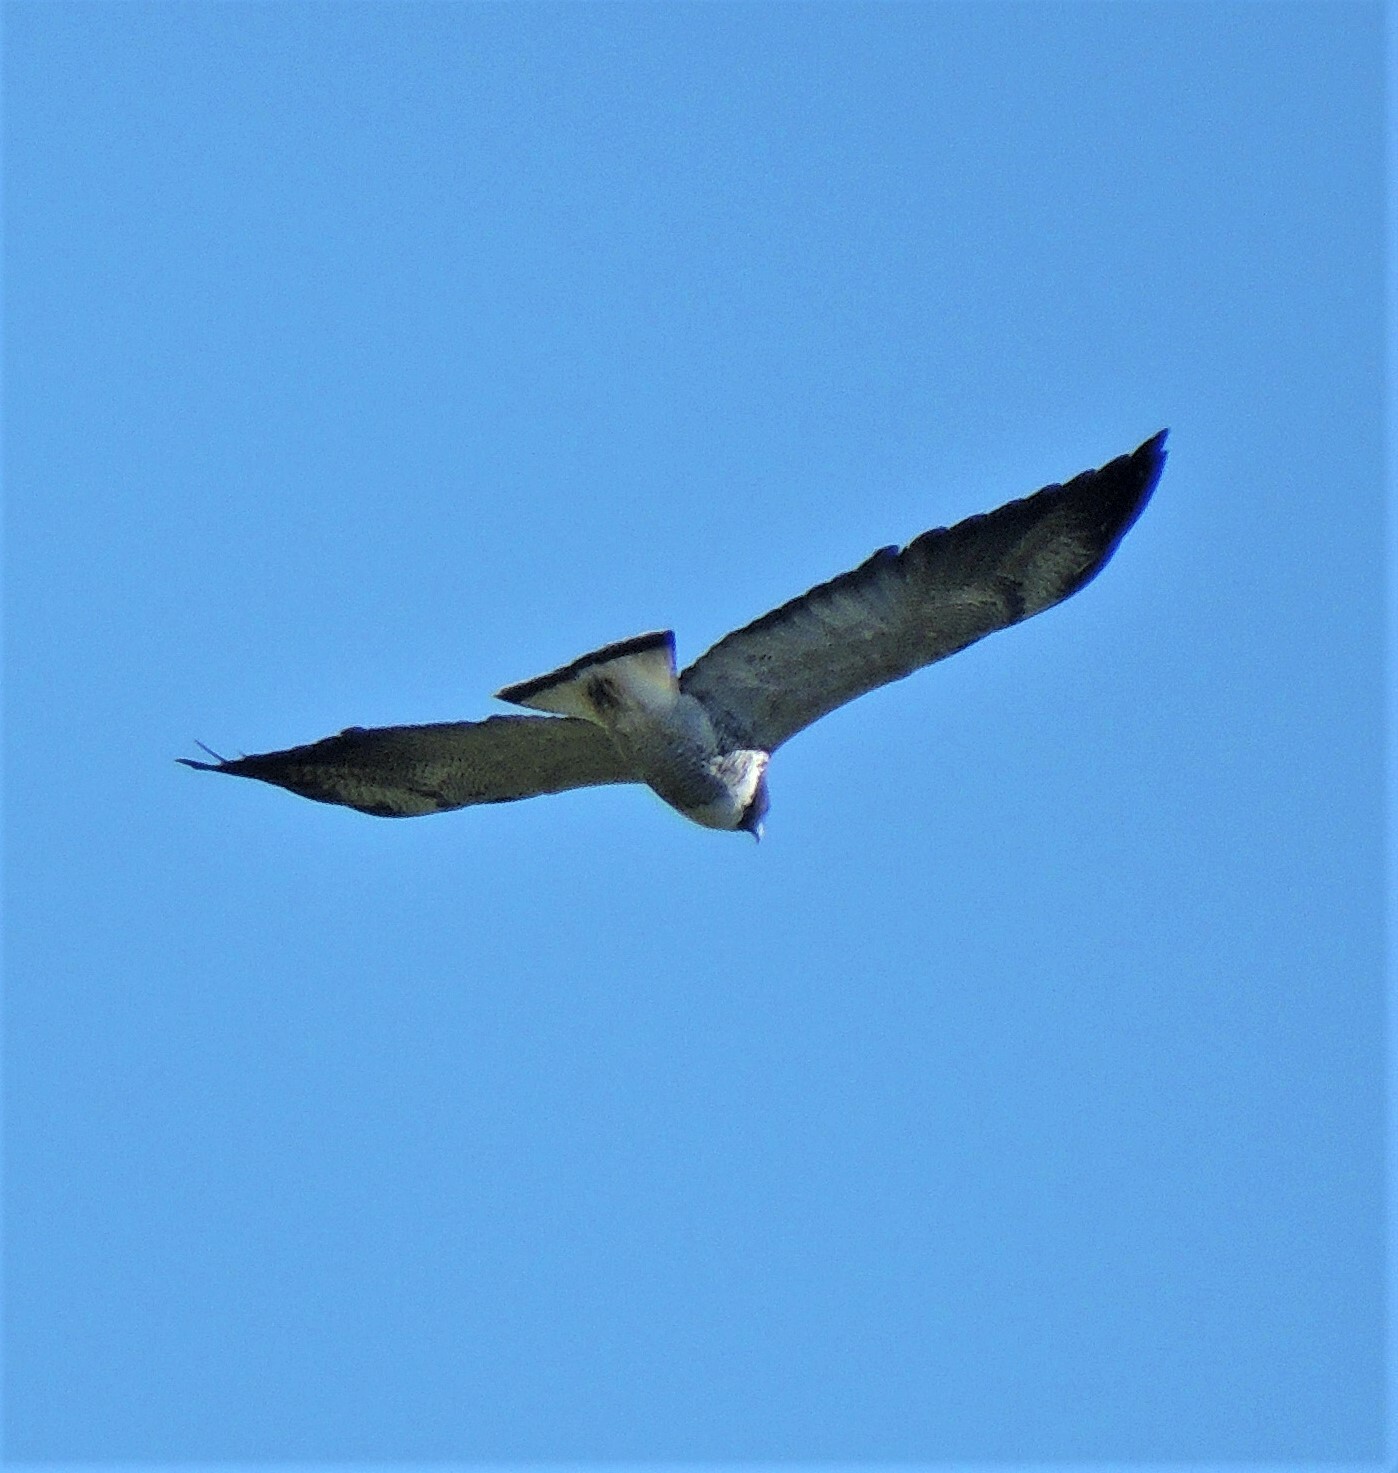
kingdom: Animalia
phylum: Chordata
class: Aves
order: Accipitriformes
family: Accipitridae
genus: Buteo
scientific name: Buteo albicaudatus
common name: White-tailed hawk
